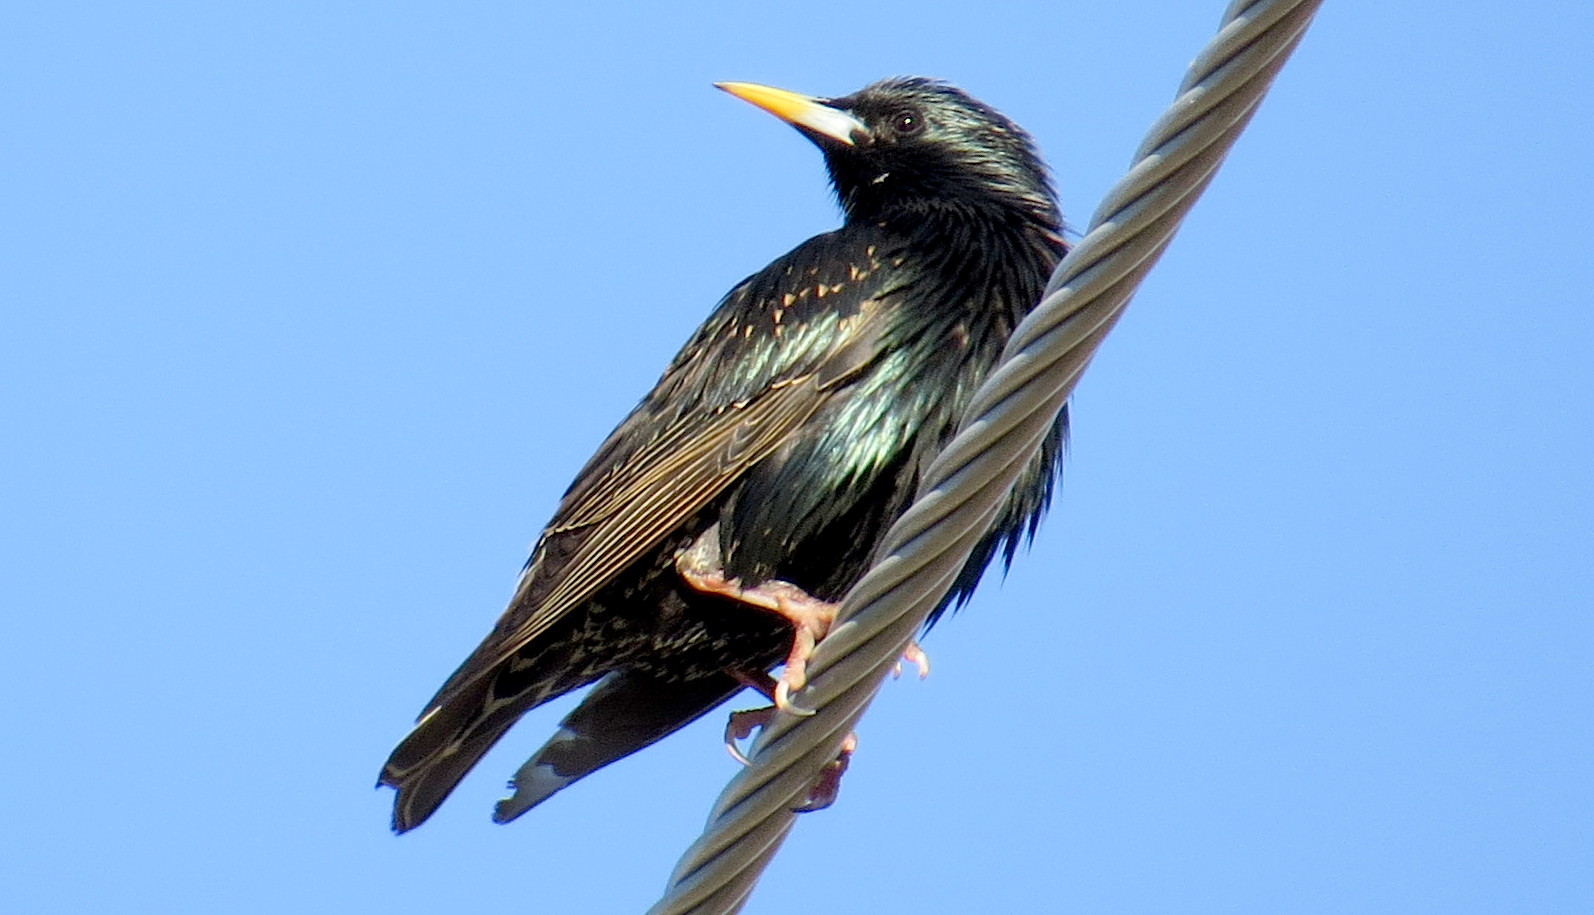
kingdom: Animalia
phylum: Chordata
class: Aves
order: Passeriformes
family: Sturnidae
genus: Sturnus
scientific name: Sturnus vulgaris
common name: Common starling
